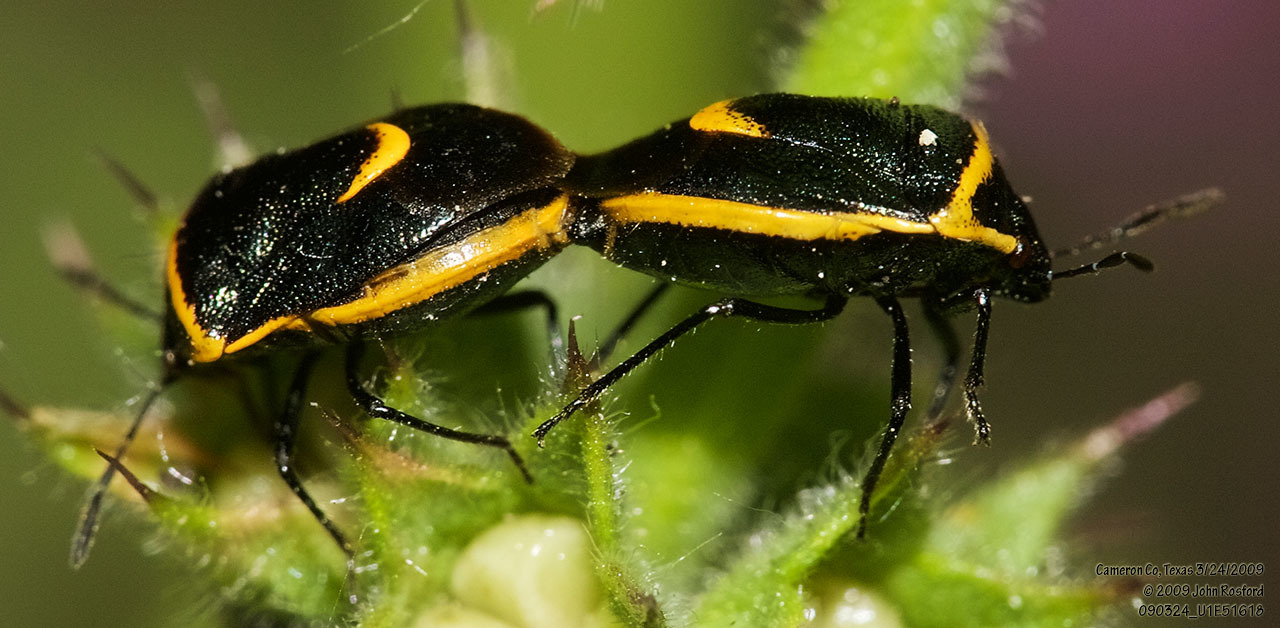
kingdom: Animalia
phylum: Arthropoda
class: Insecta
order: Hemiptera
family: Pentatomidae
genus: Cosmopepla
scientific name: Cosmopepla decorata
